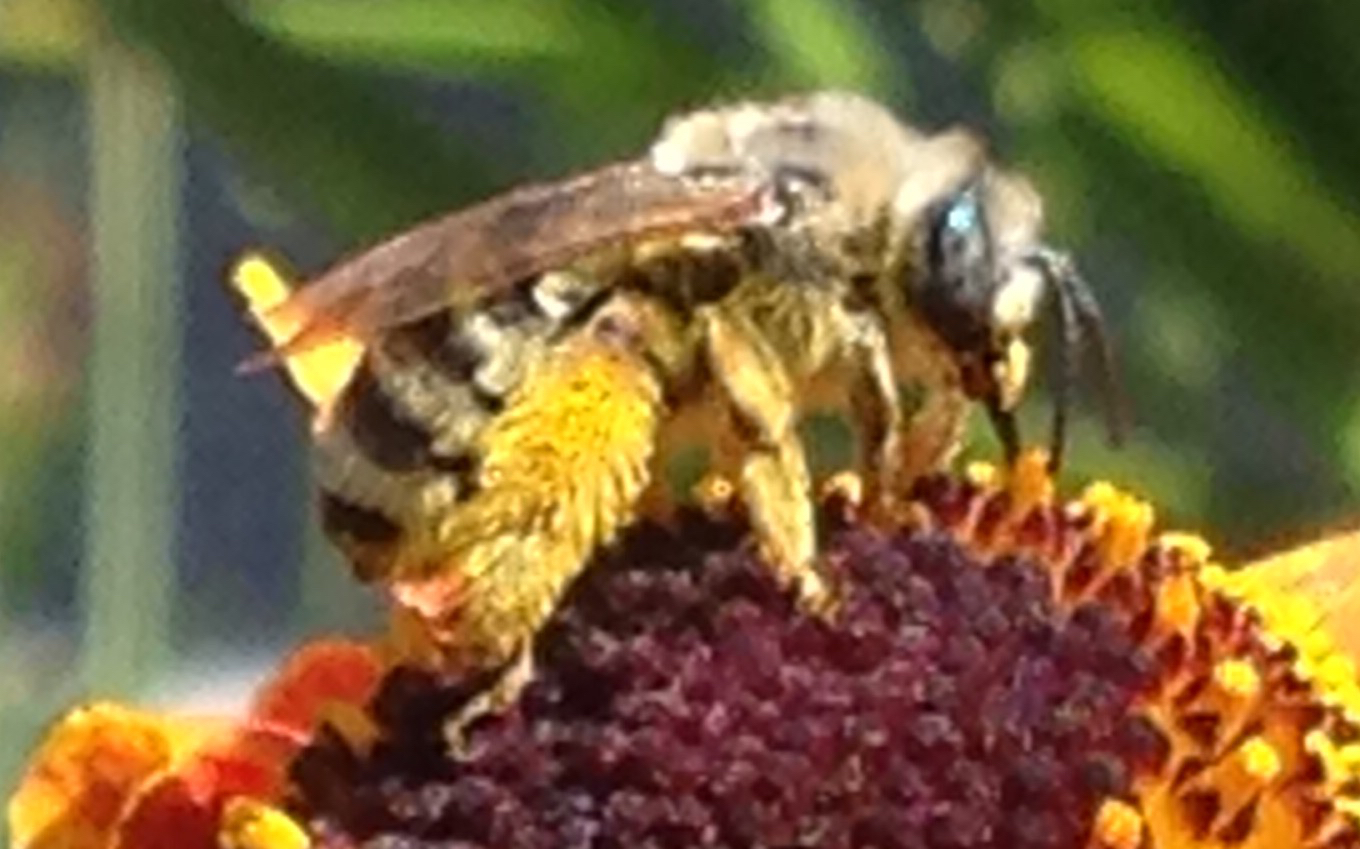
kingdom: Animalia
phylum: Arthropoda
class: Insecta
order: Hymenoptera
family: Apidae
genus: Melissodes
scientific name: Melissodes
